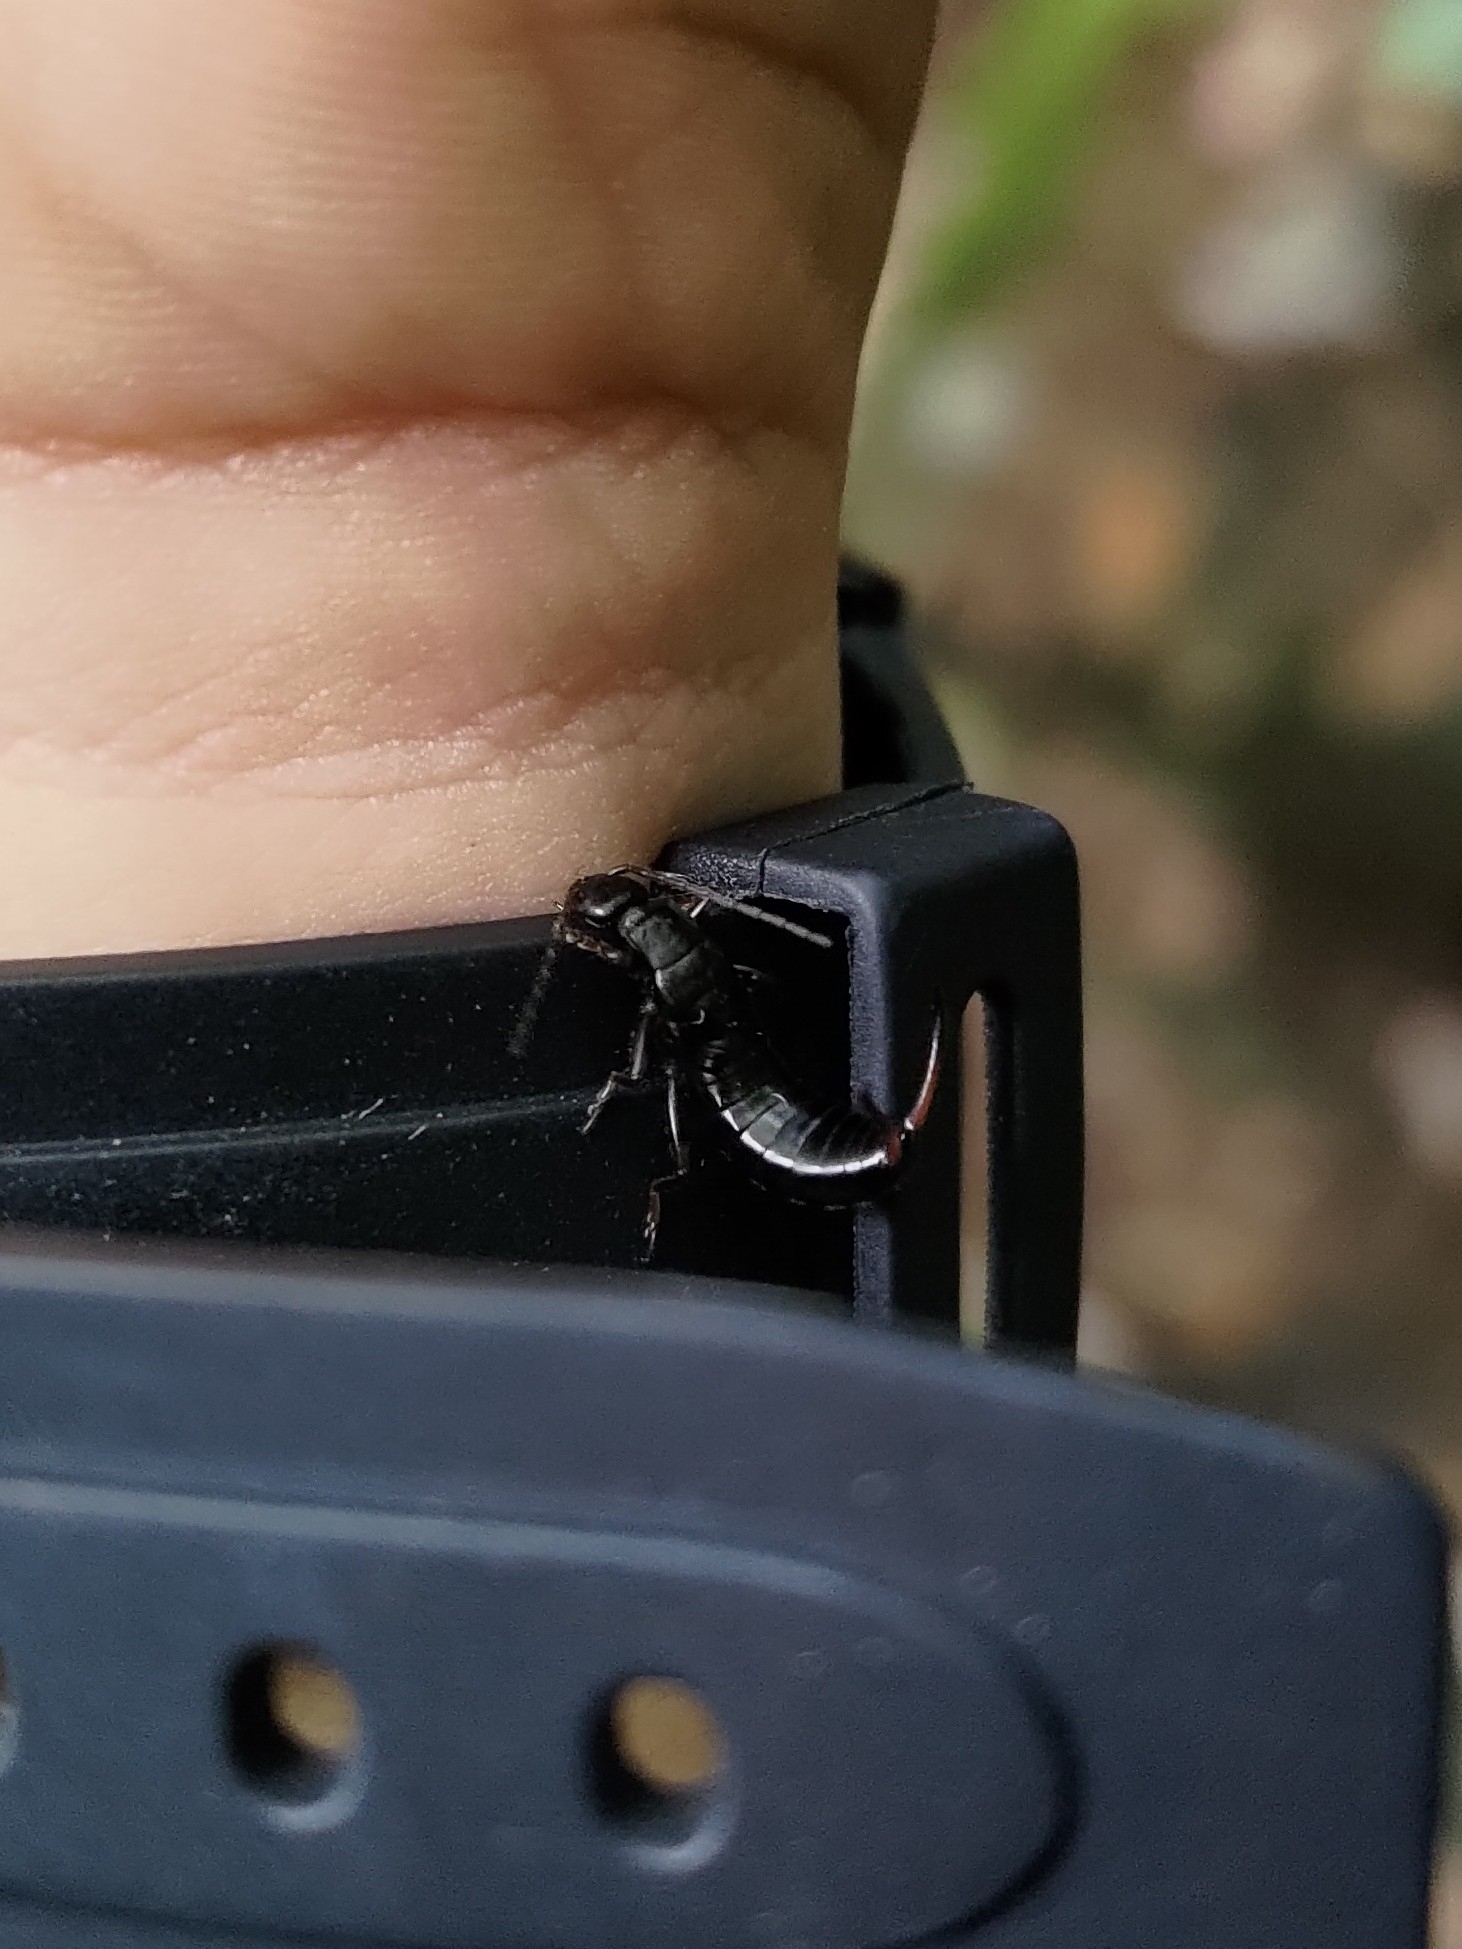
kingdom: Animalia
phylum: Arthropoda
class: Insecta
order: Dermaptera
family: Forficulidae
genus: Anechura
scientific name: Anechura harmandi
